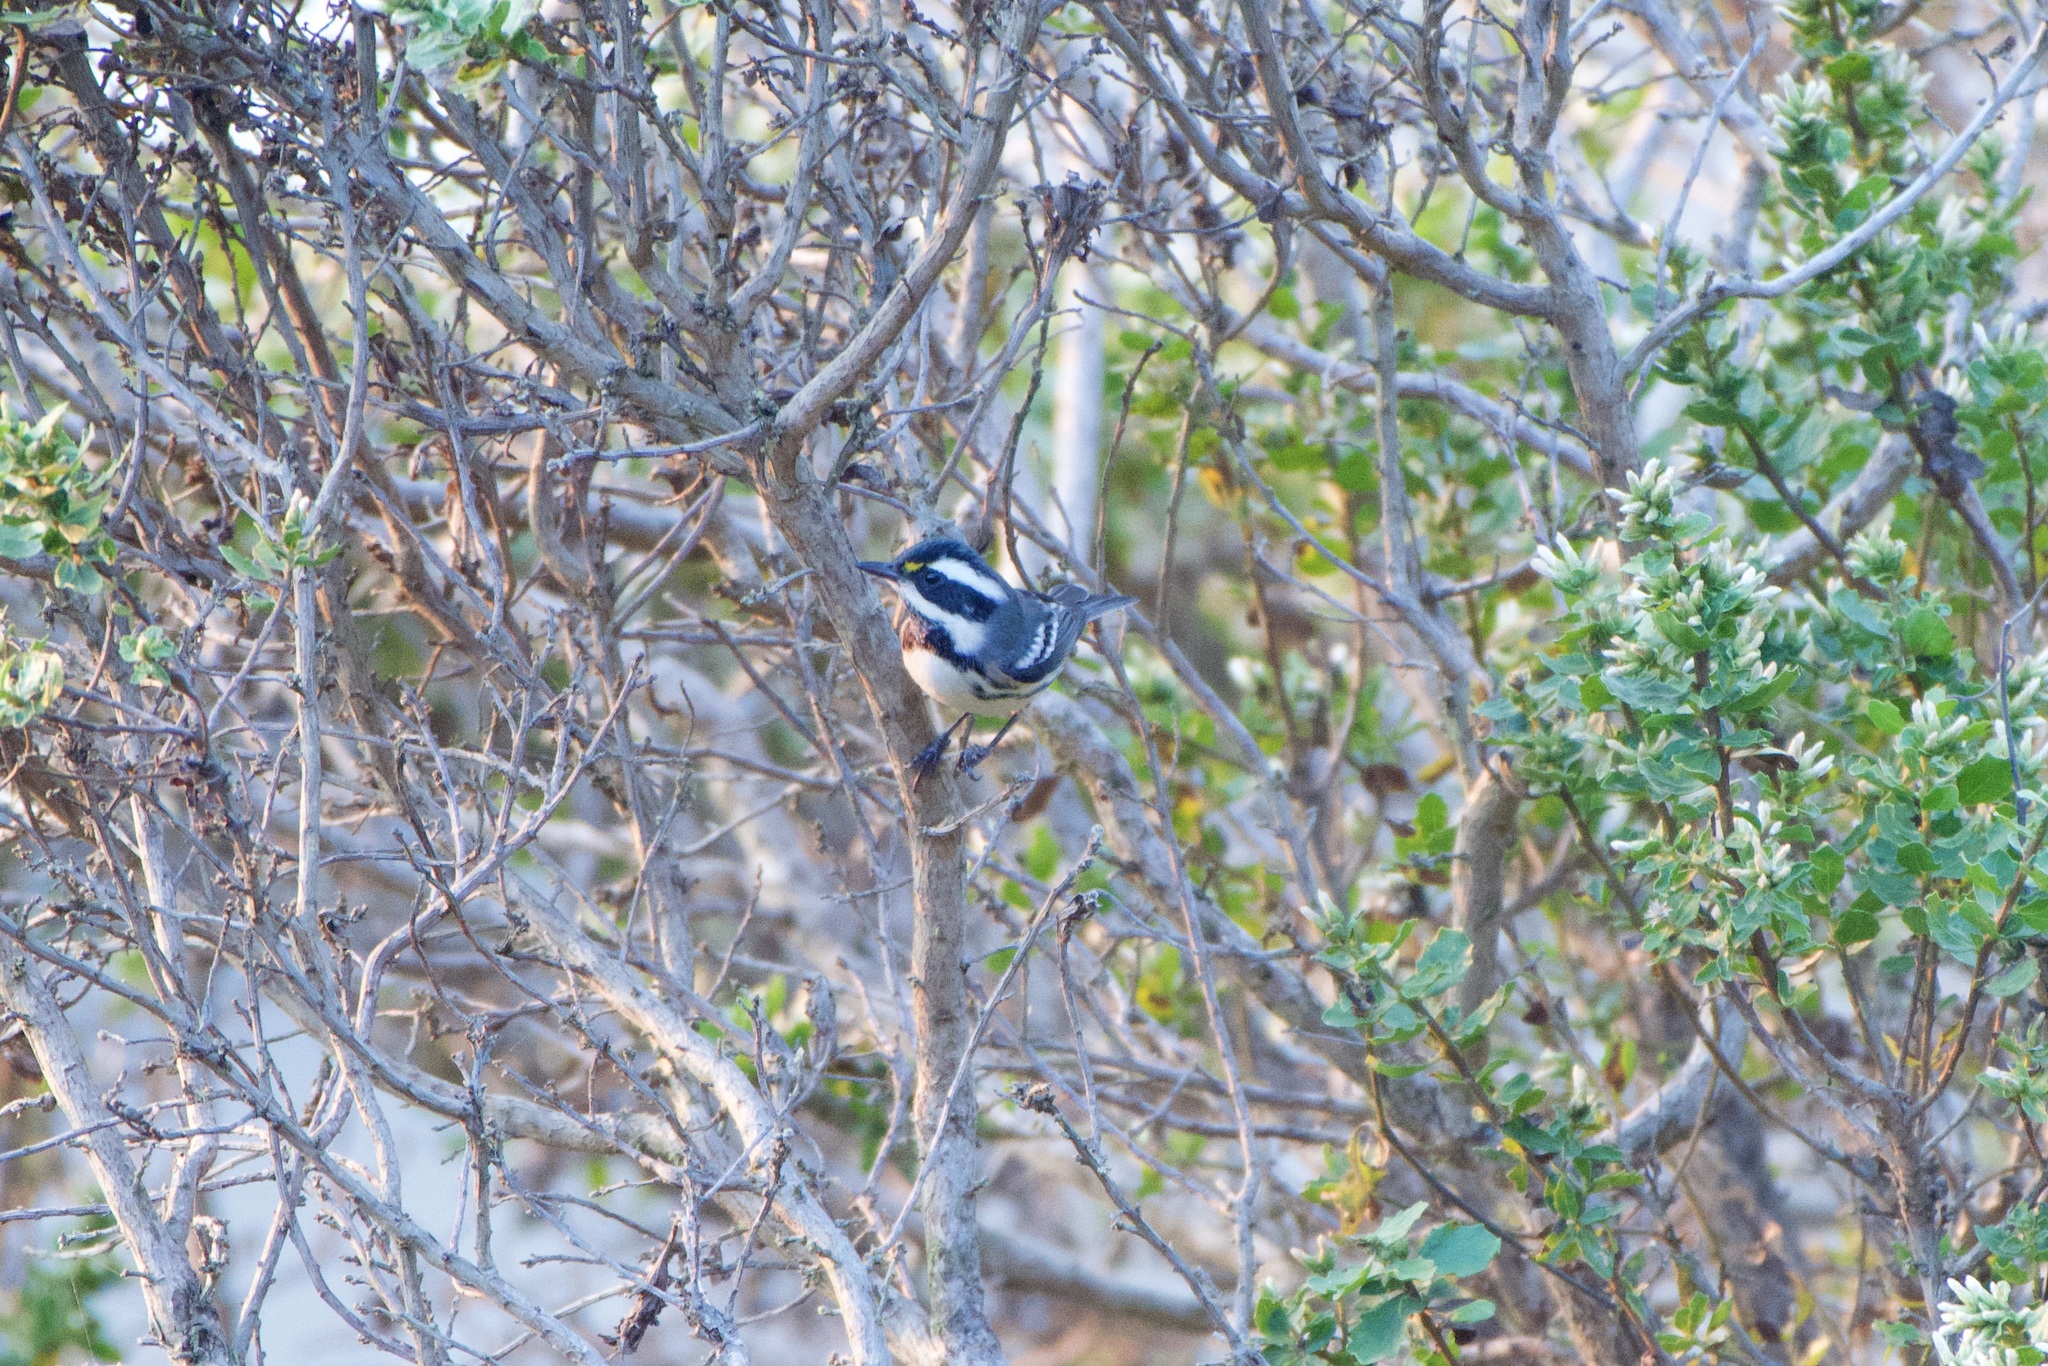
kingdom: Animalia
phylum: Chordata
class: Aves
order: Passeriformes
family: Parulidae
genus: Setophaga
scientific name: Setophaga nigrescens
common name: Black-throated gray warbler
